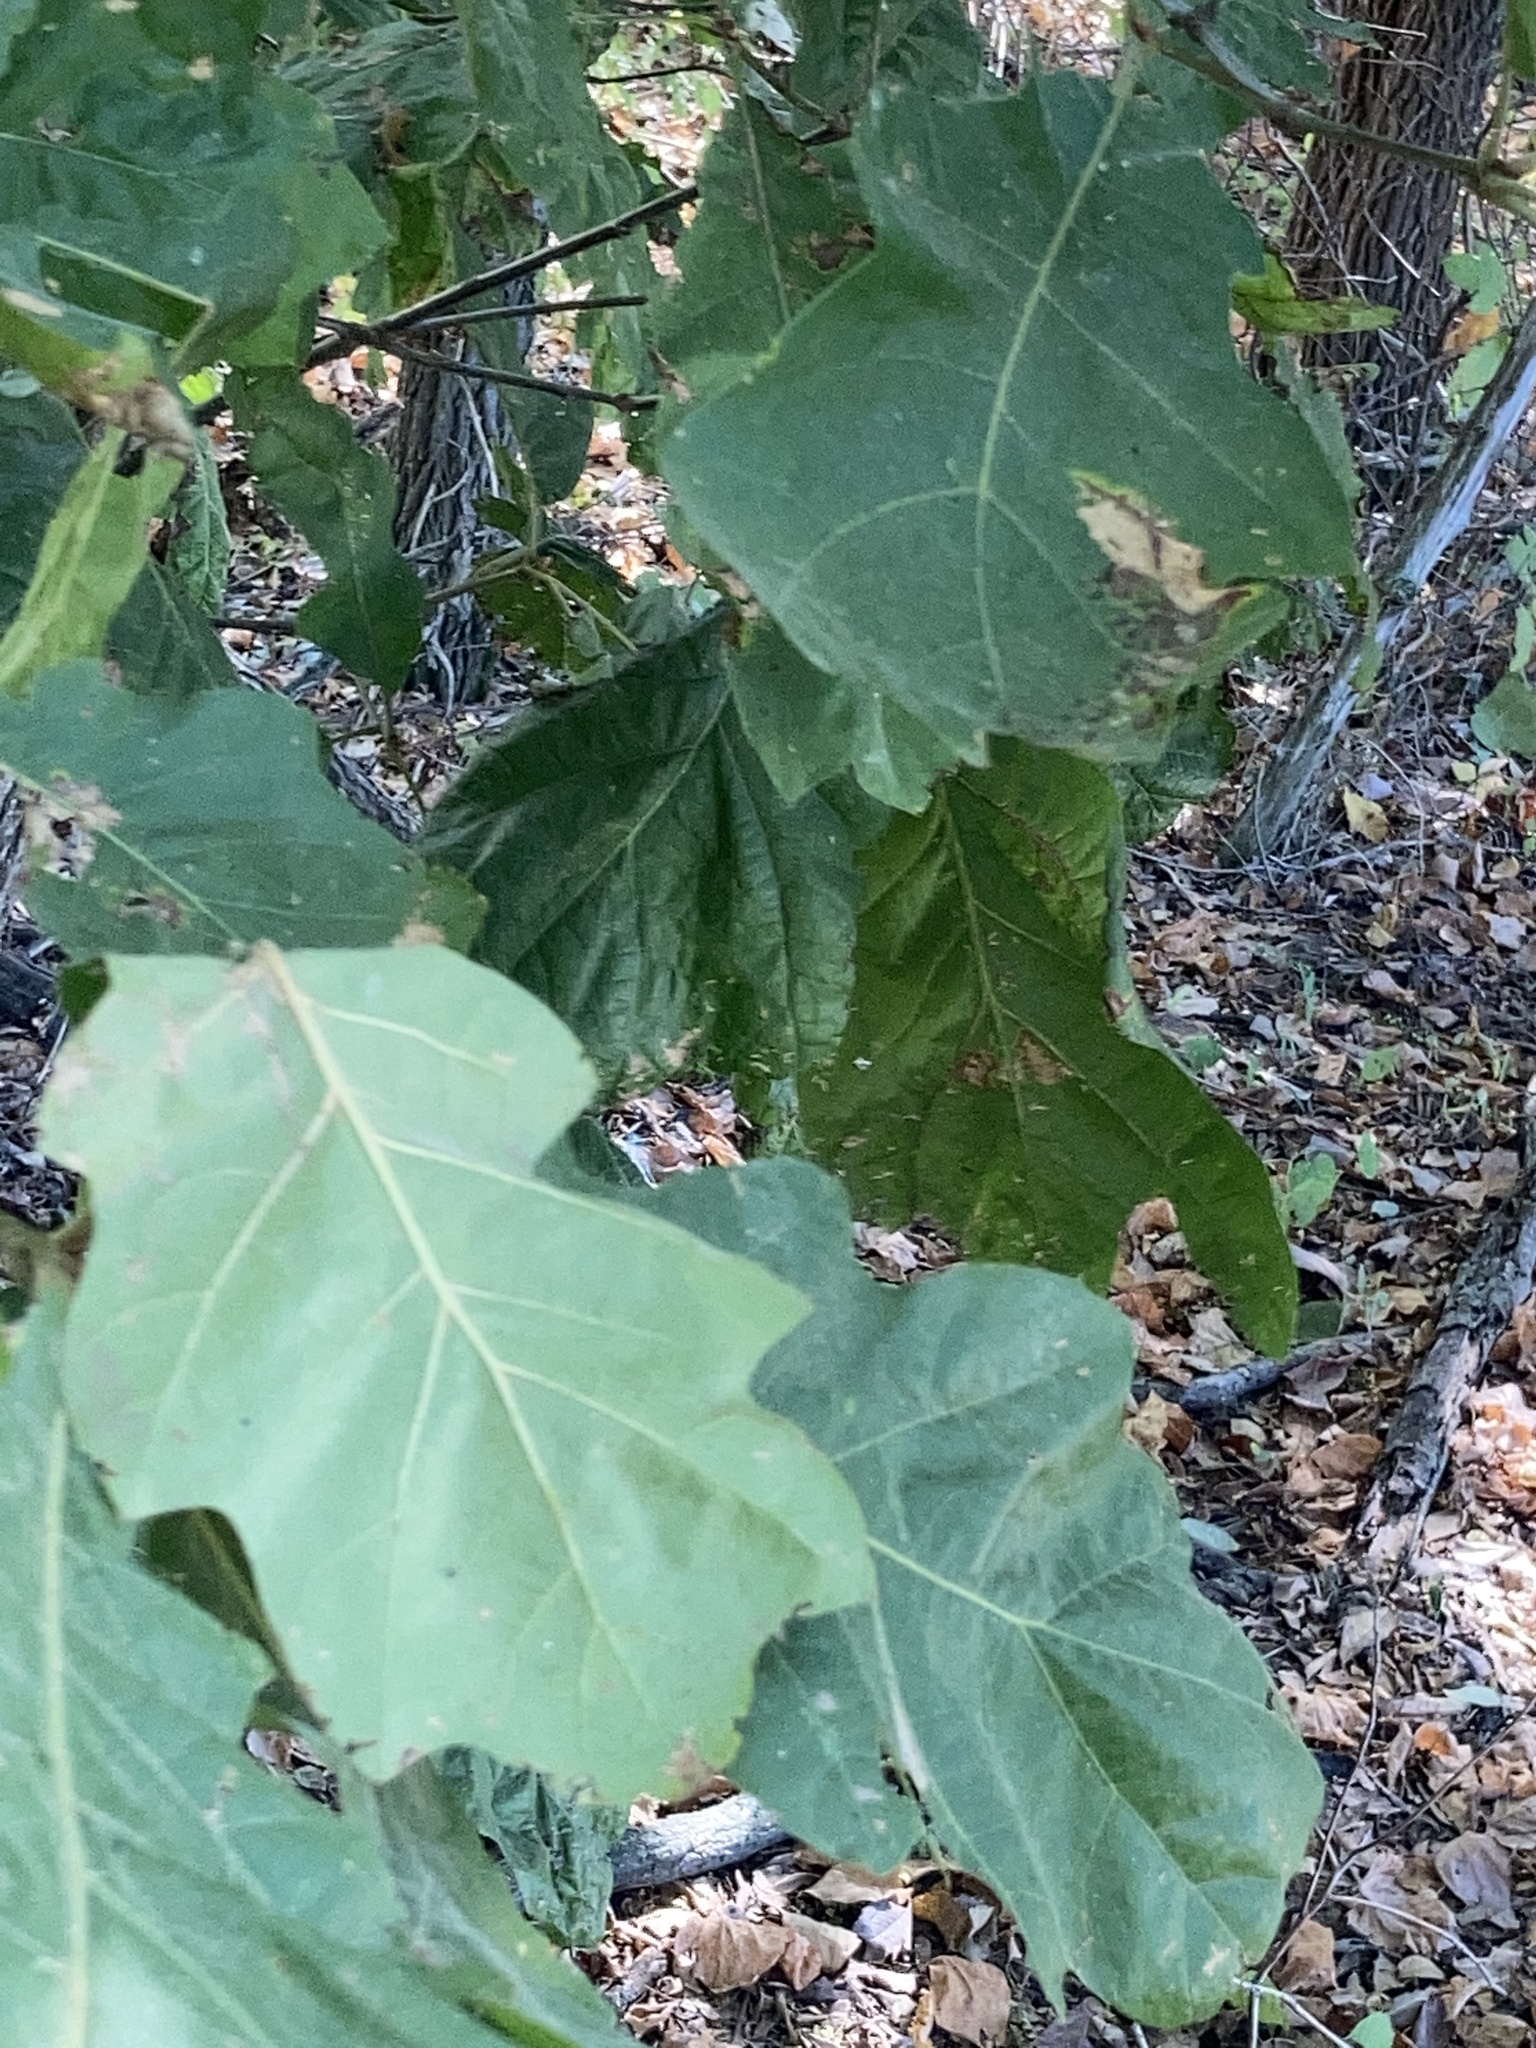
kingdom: Plantae
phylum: Tracheophyta
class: Magnoliopsida
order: Fagales
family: Fagaceae
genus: Quercus
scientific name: Quercus velutina
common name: Black oak
